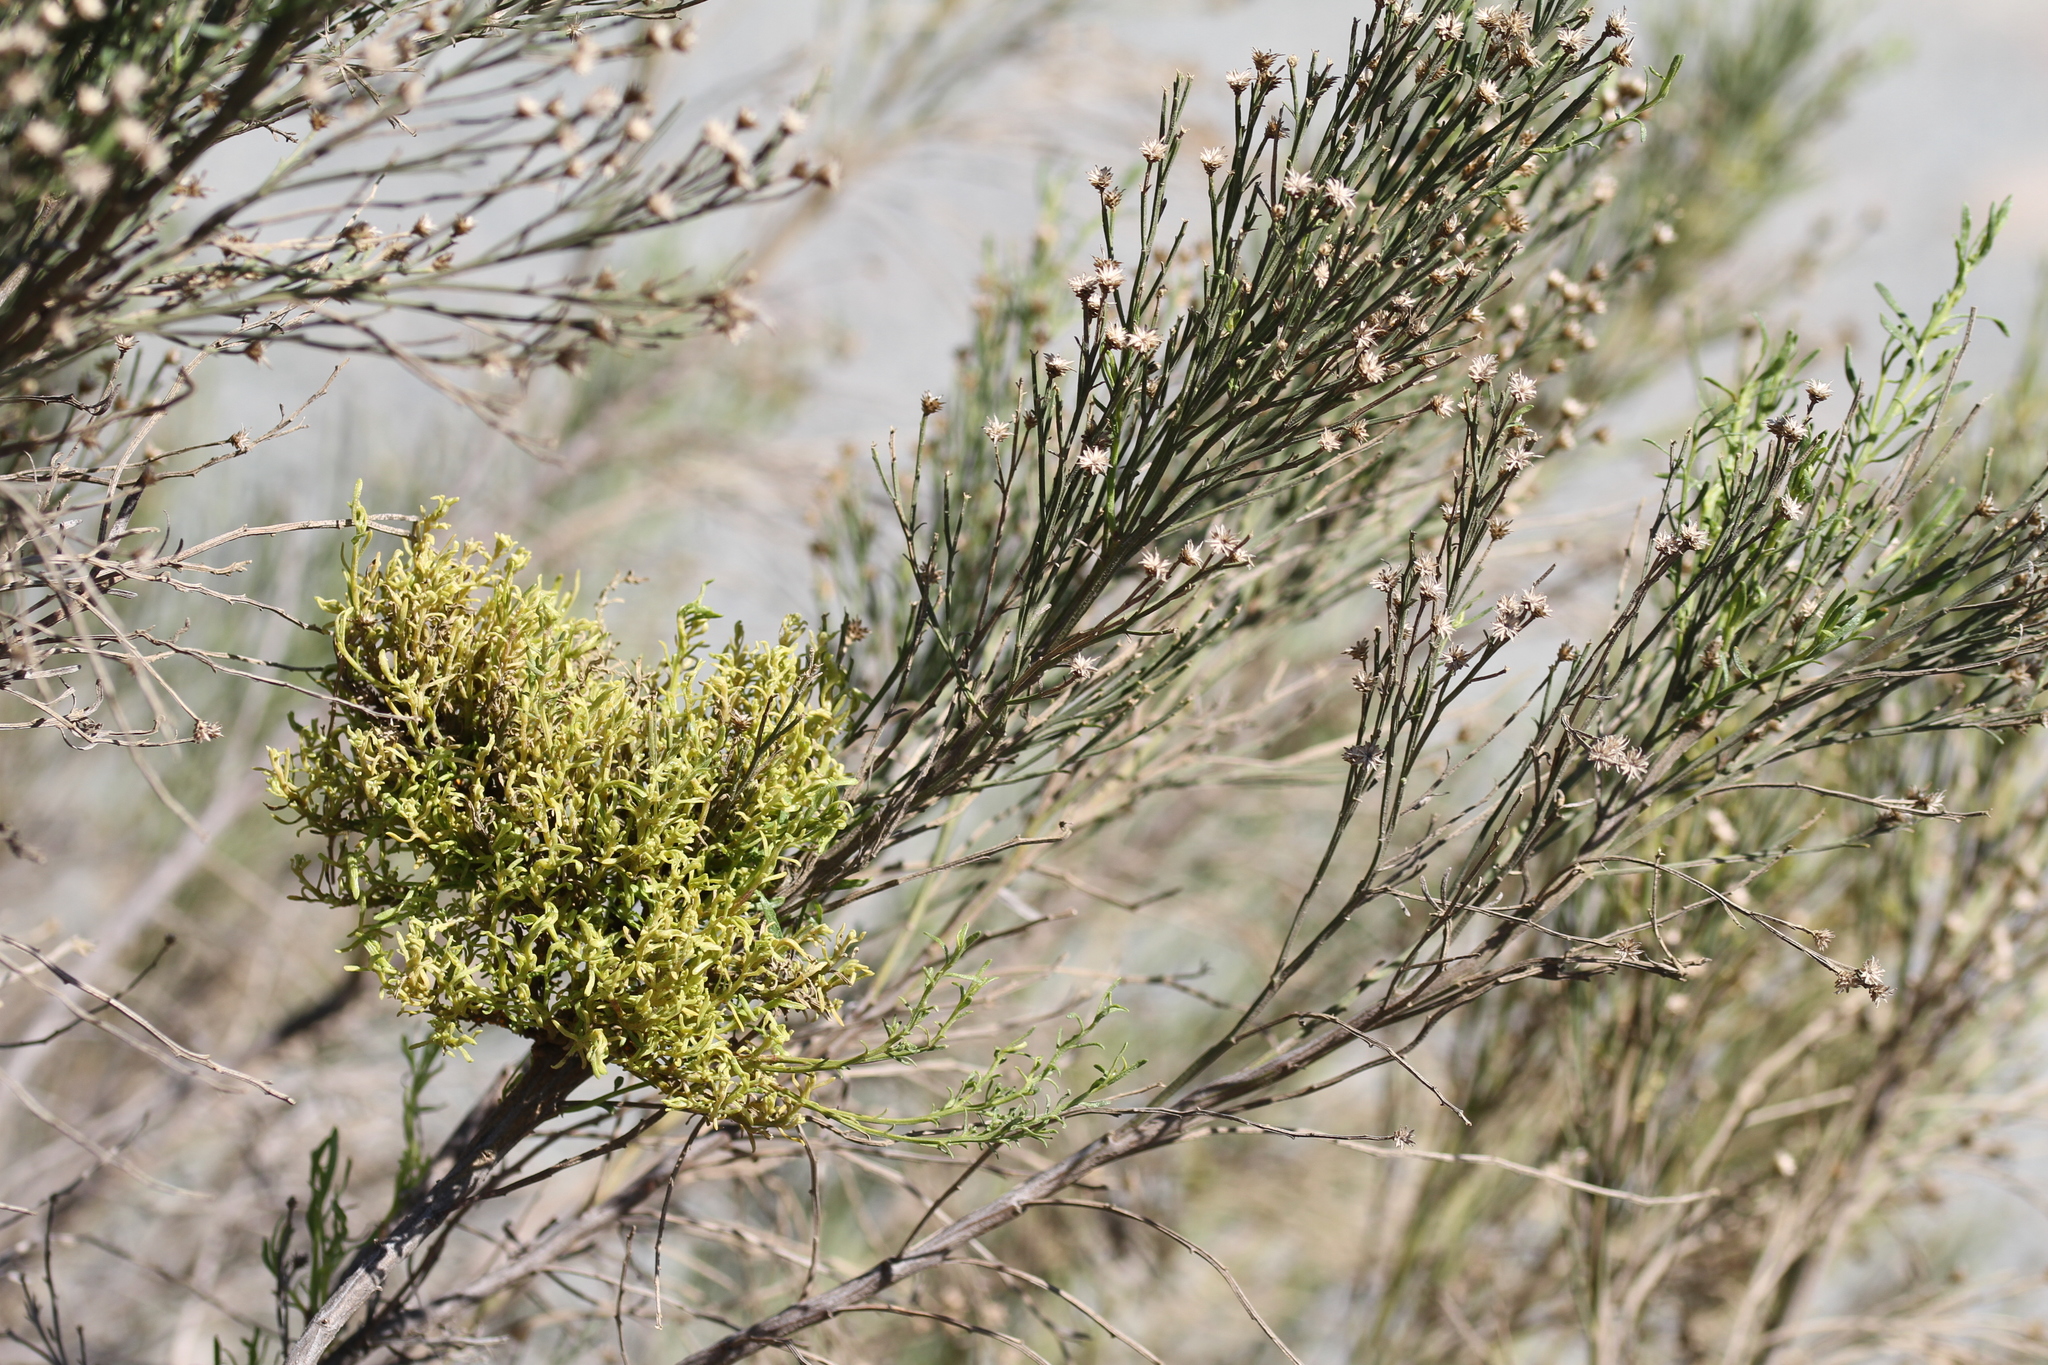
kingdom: Fungi
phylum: Basidiomycota
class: Pucciniomycetes
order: Pucciniales
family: Pucciniaceae
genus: Eriosporangium
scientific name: Eriosporangium evadens
